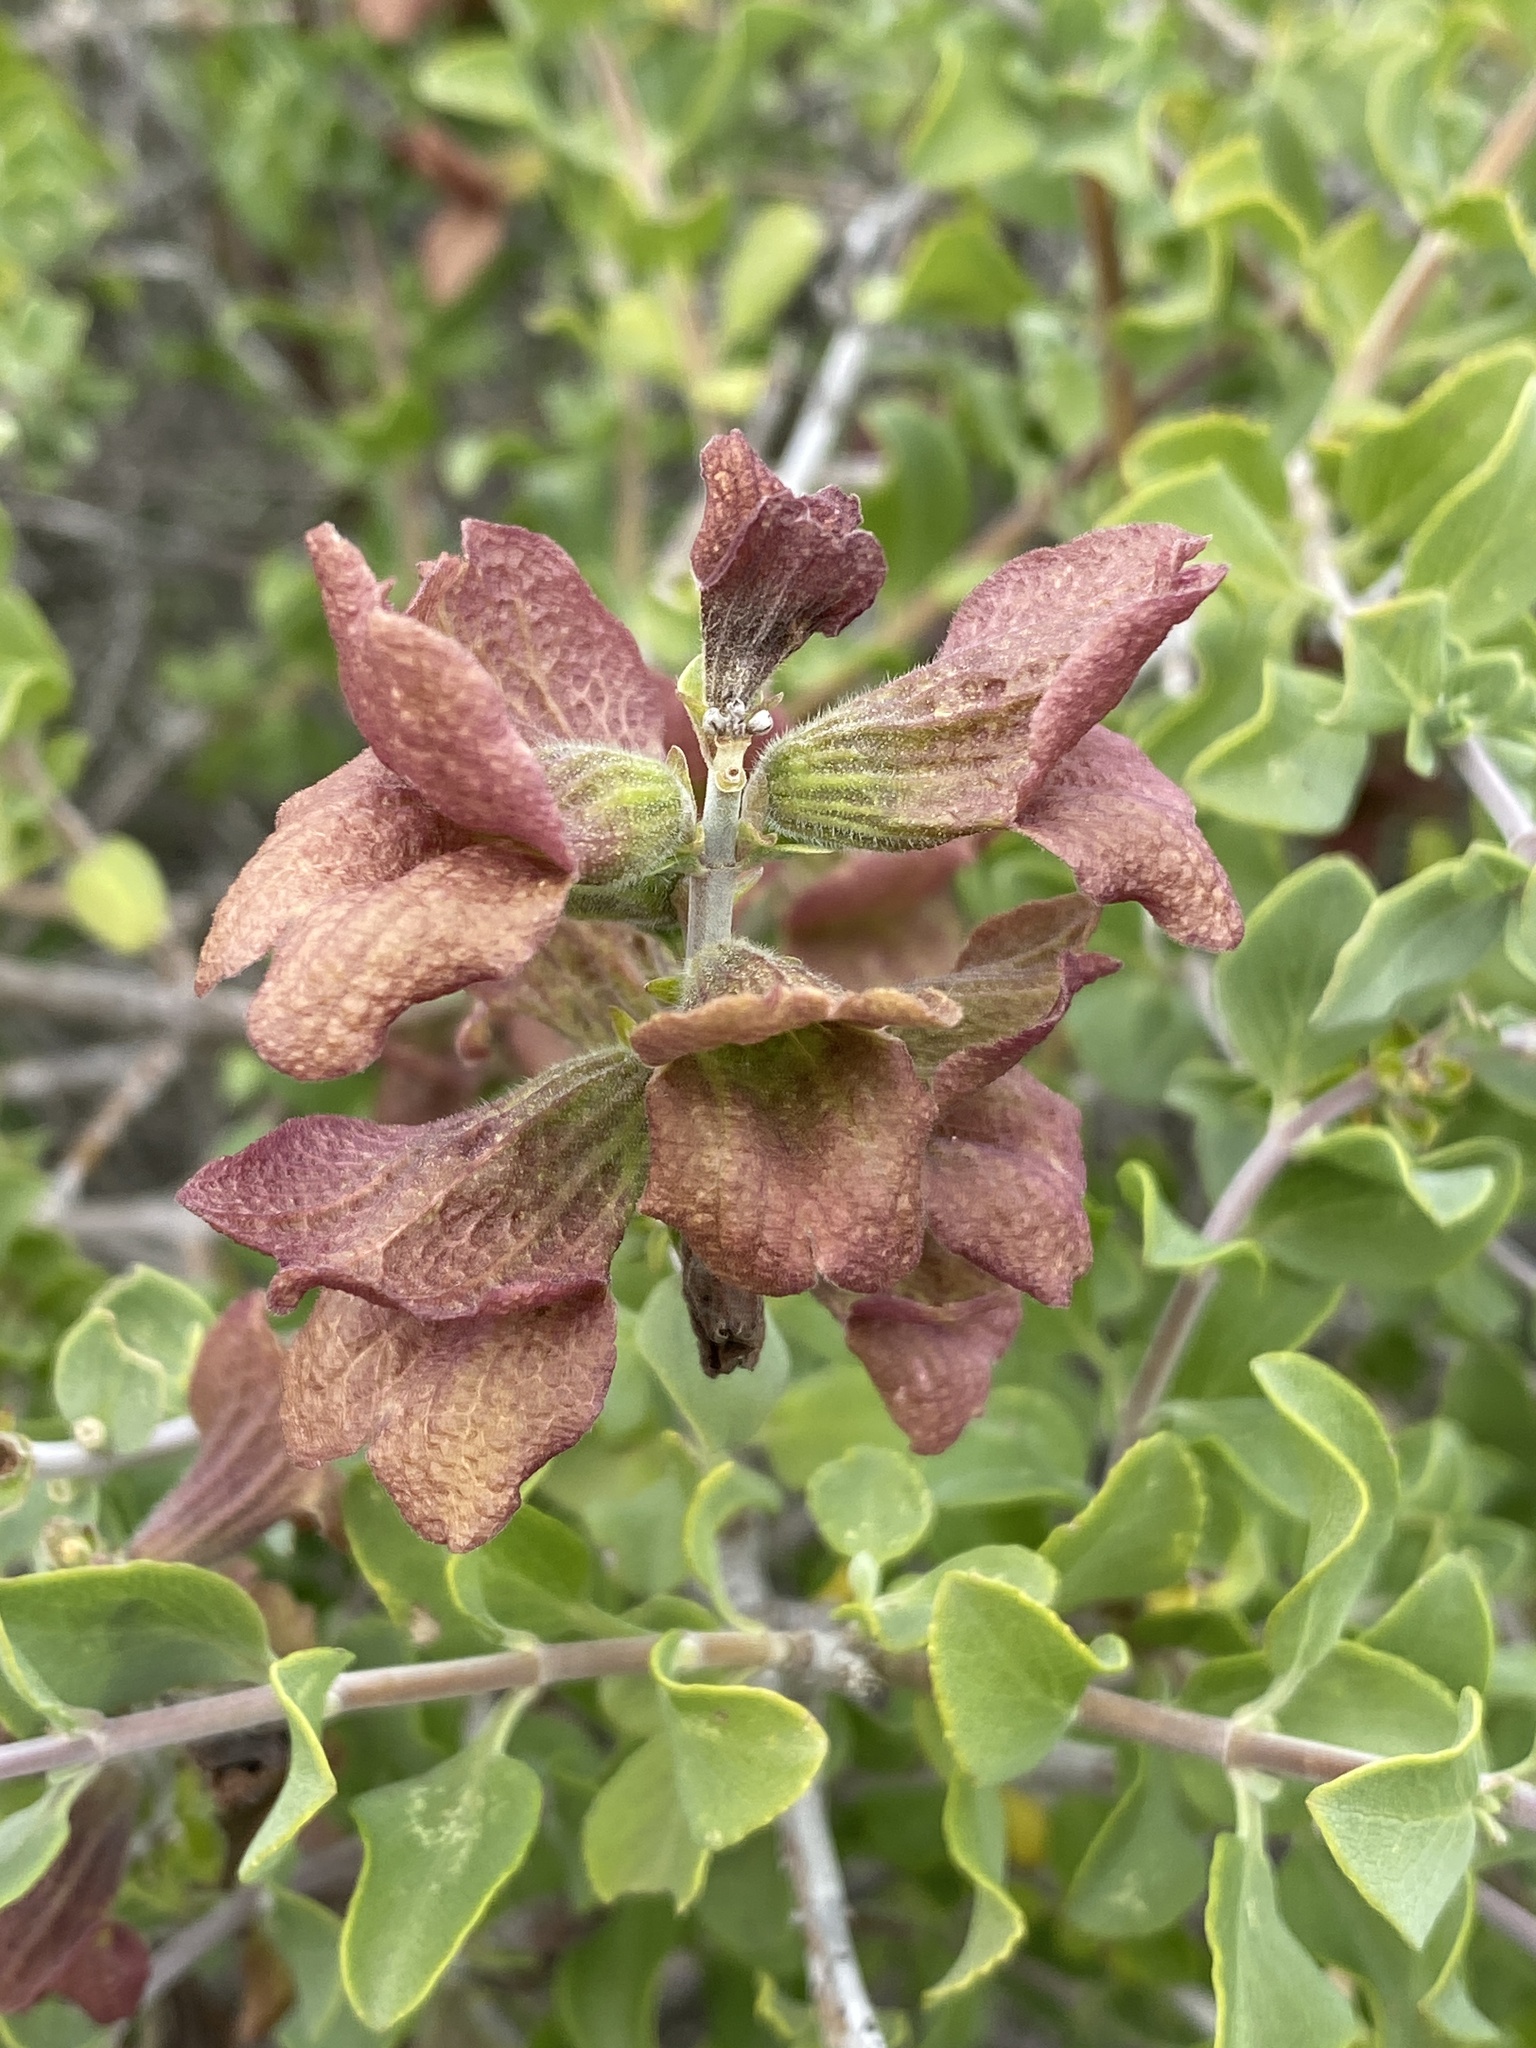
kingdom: Plantae
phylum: Tracheophyta
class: Magnoliopsida
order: Lamiales
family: Lamiaceae
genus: Salvia
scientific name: Salvia aurea
